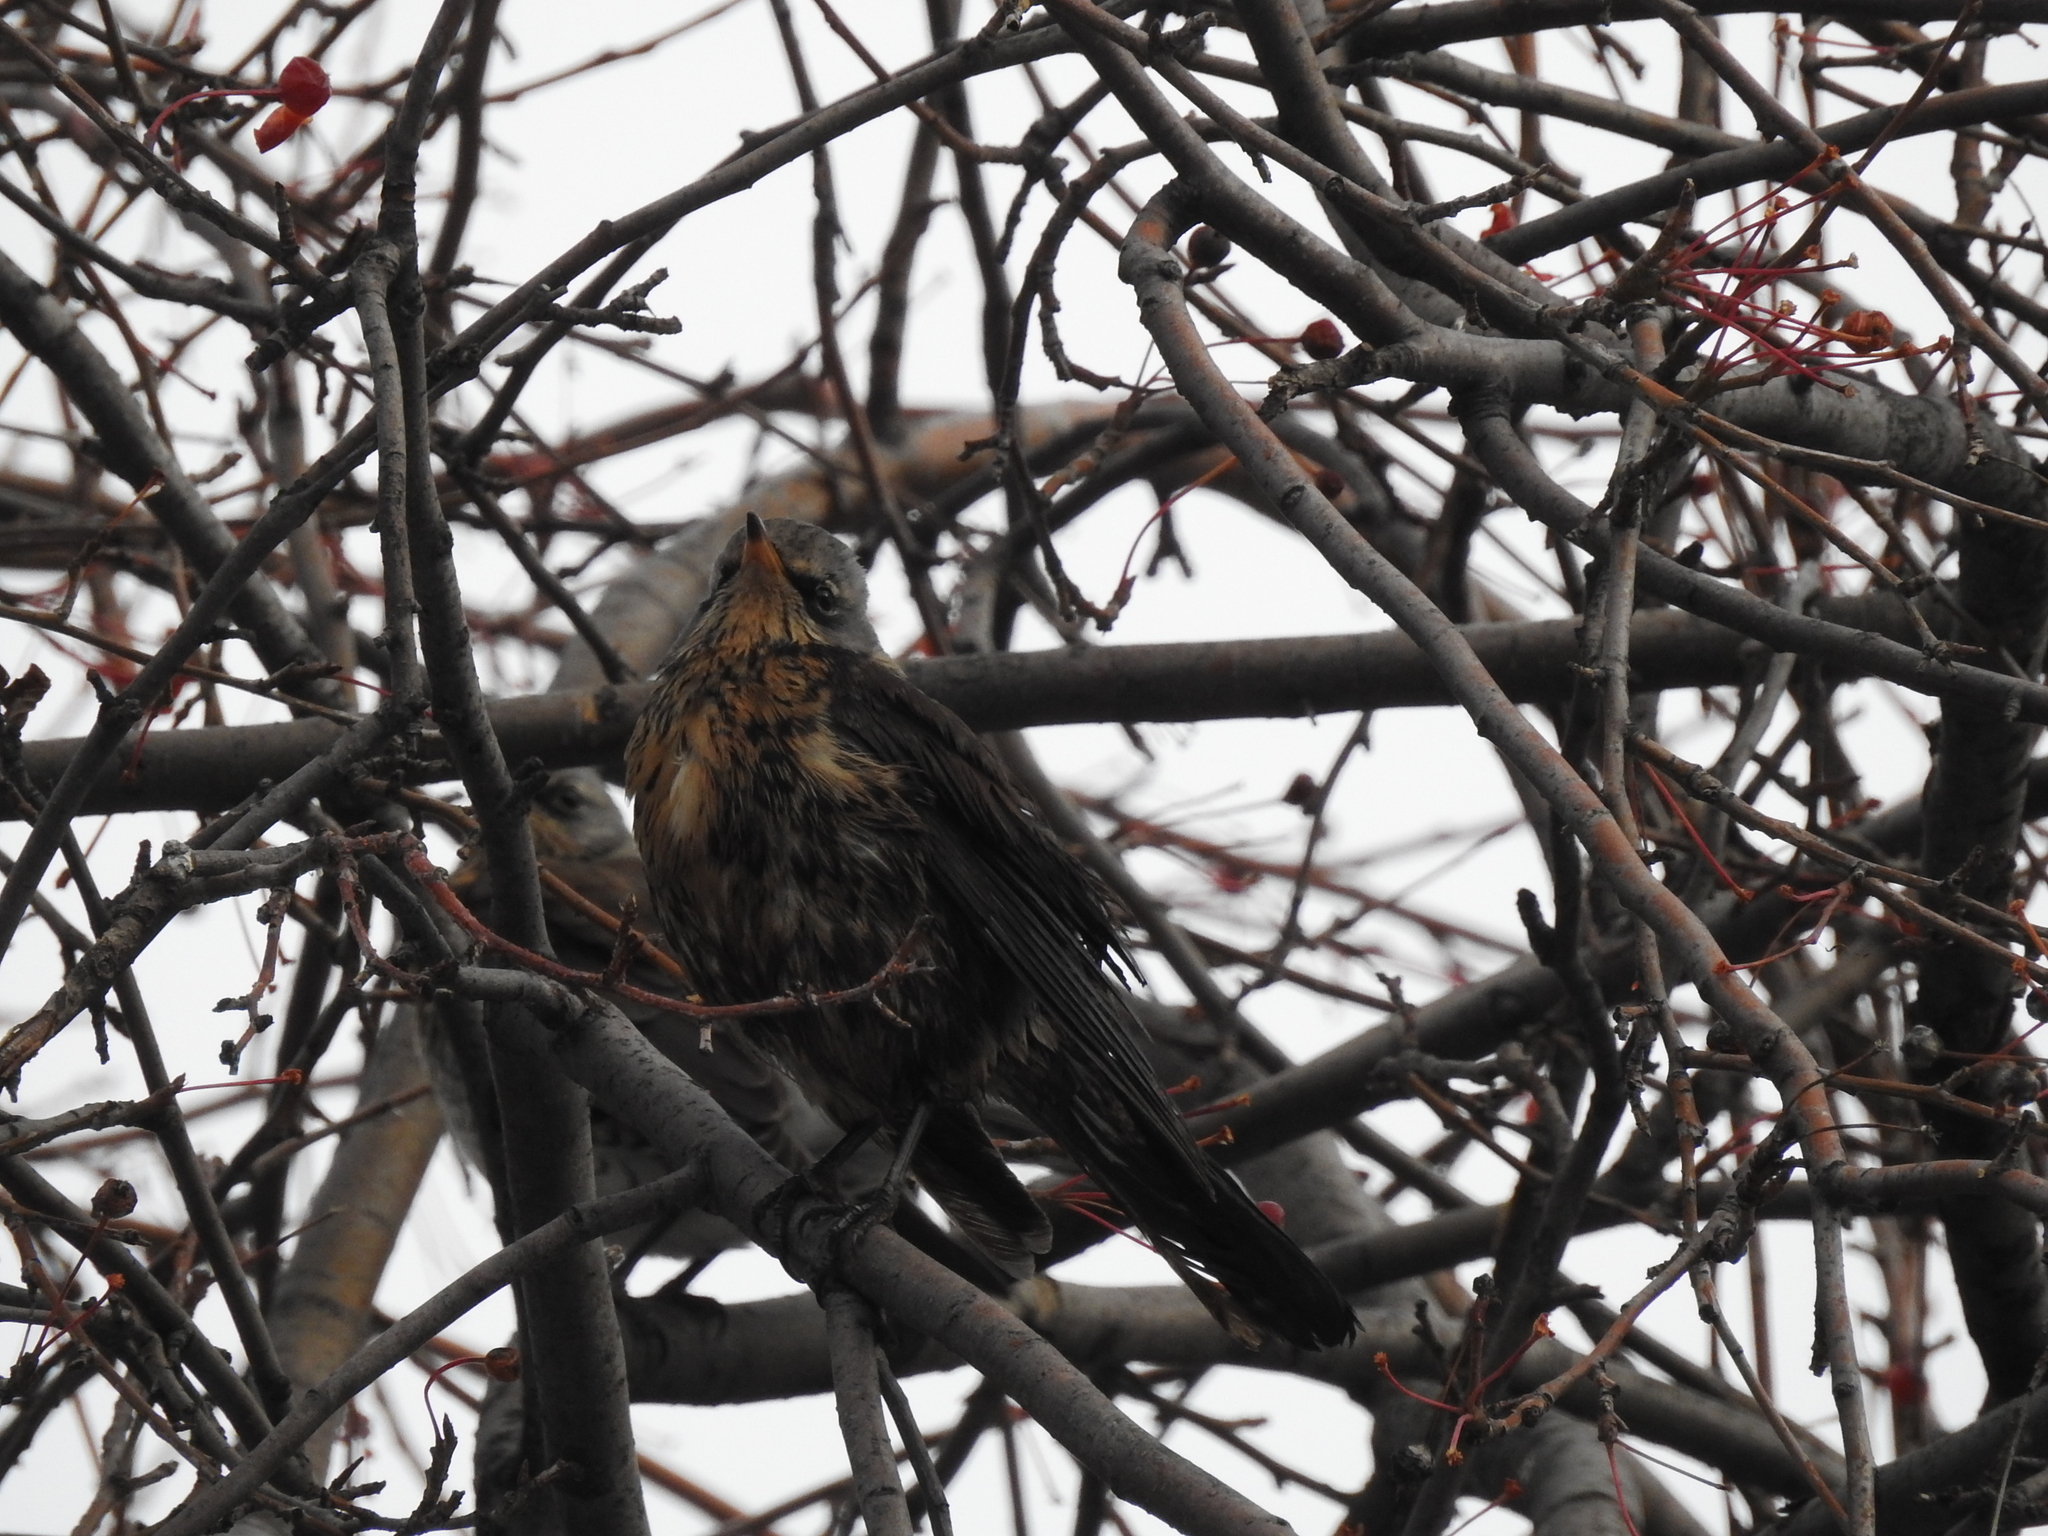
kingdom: Animalia
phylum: Chordata
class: Aves
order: Passeriformes
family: Turdidae
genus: Turdus
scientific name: Turdus pilaris
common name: Fieldfare
